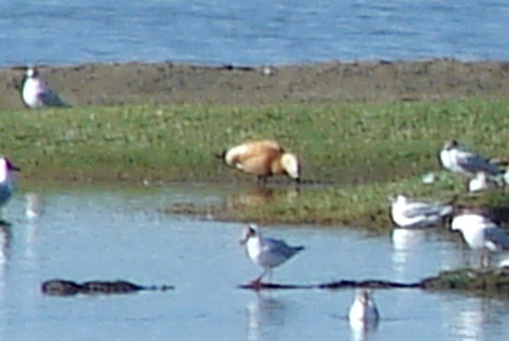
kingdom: Animalia
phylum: Chordata
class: Aves
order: Anseriformes
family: Anatidae
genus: Tadorna
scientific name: Tadorna ferruginea
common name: Ruddy shelduck
